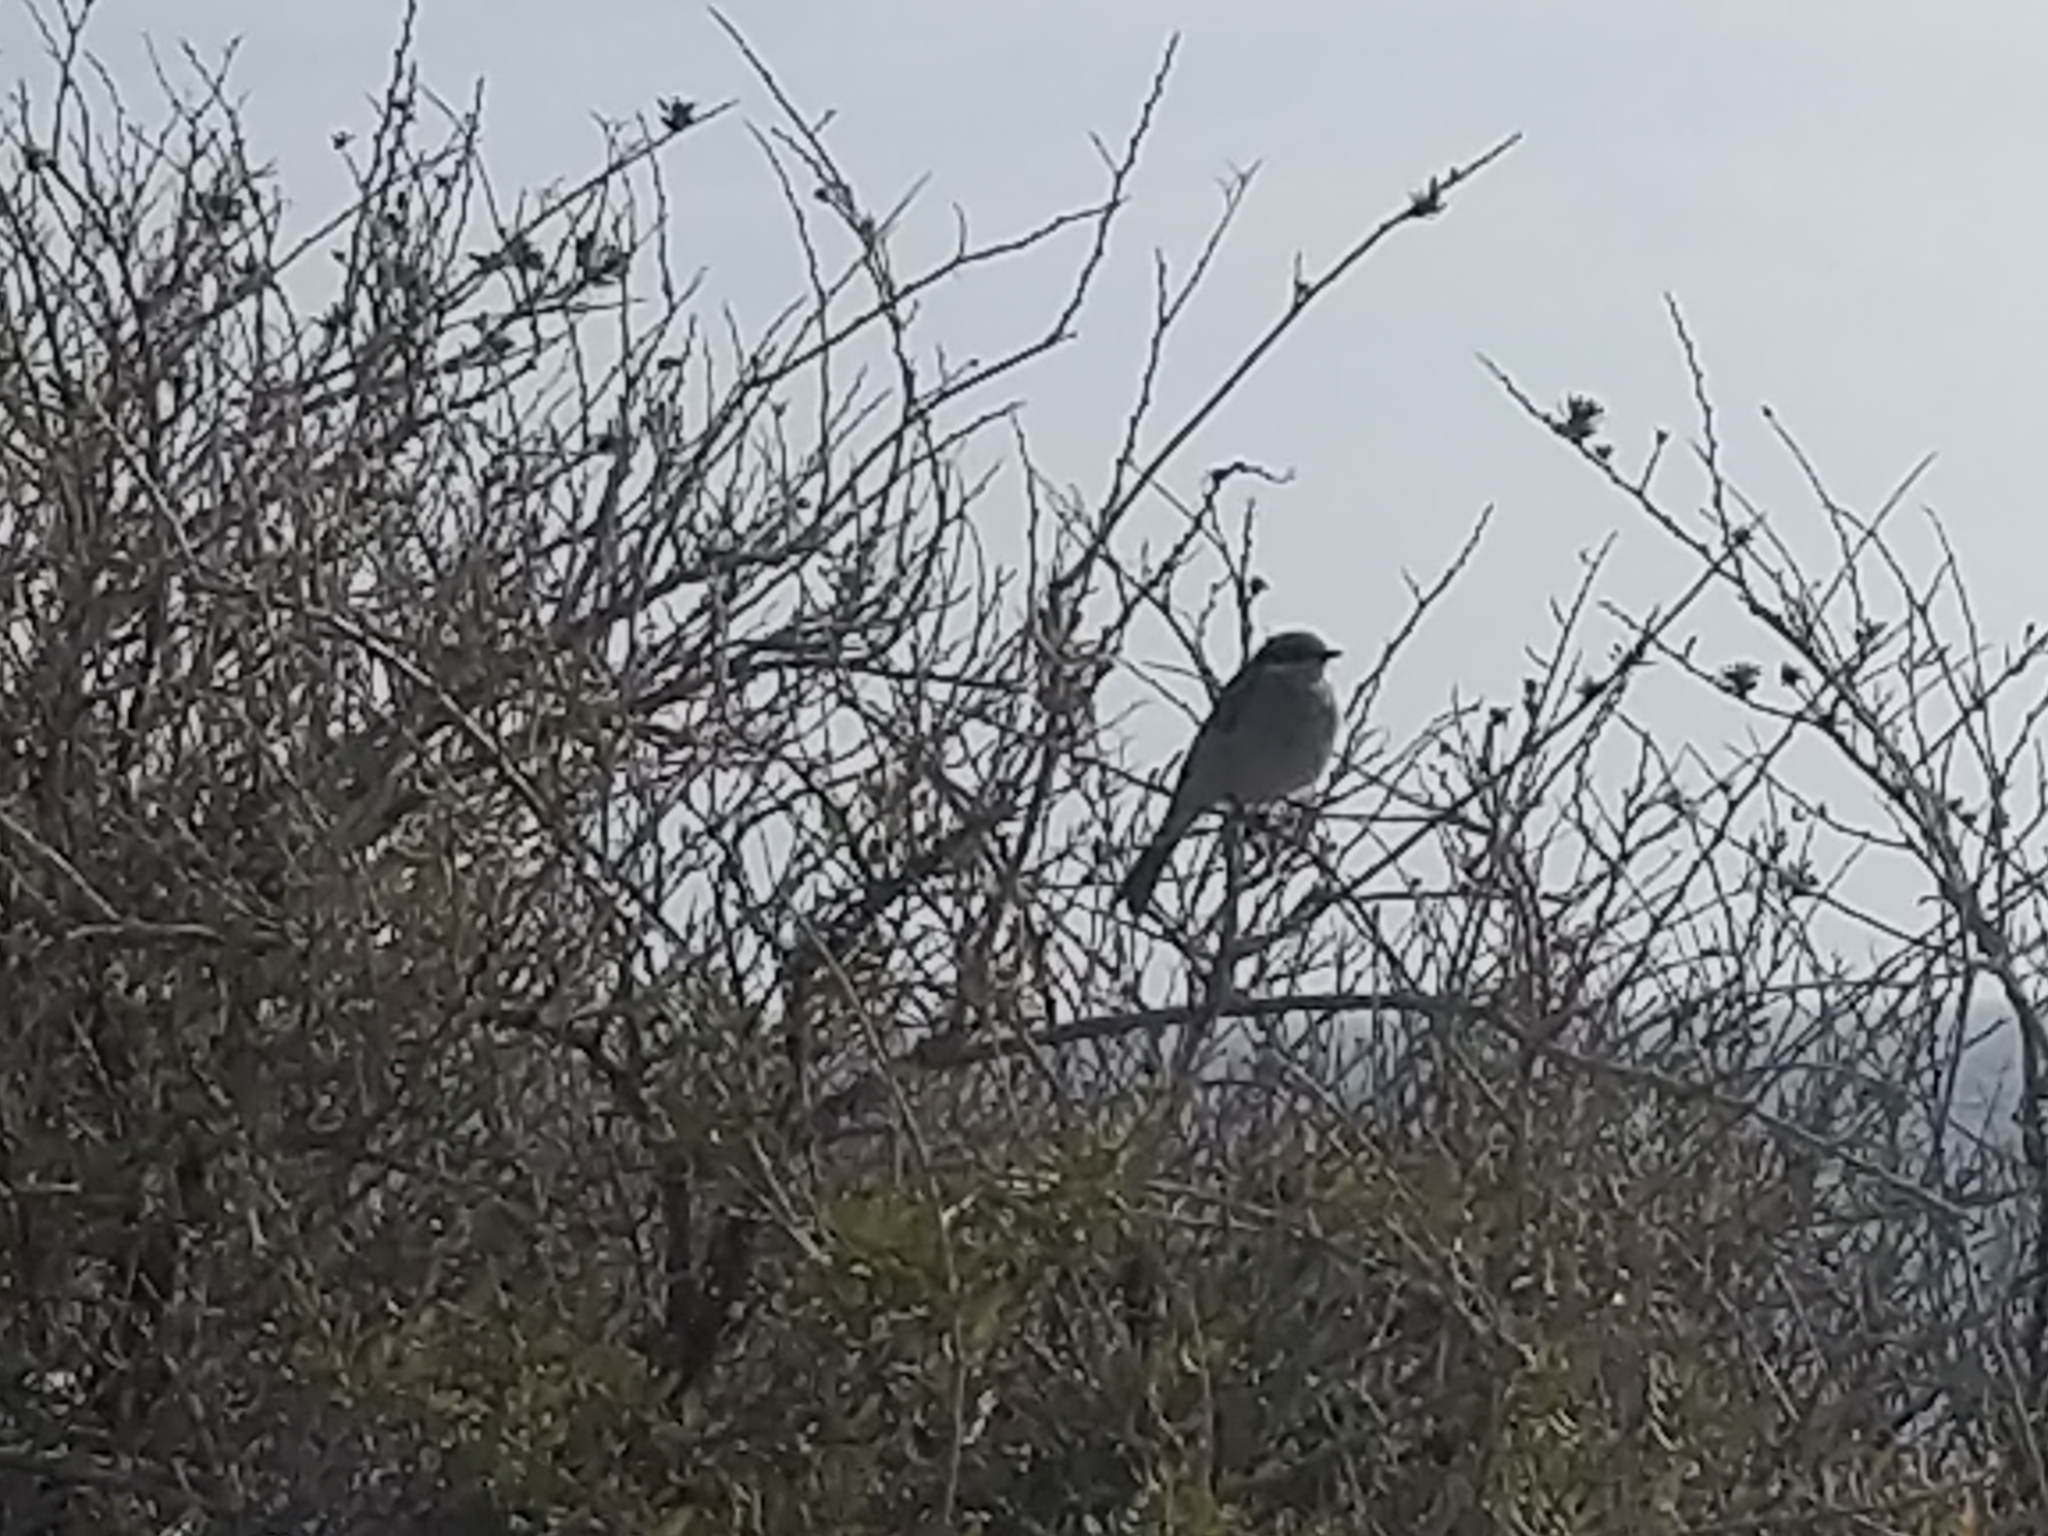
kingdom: Animalia
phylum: Chordata
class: Aves
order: Passeriformes
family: Meliphagidae
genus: Gavicalis
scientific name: Gavicalis virescens
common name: Singing honeyeater
